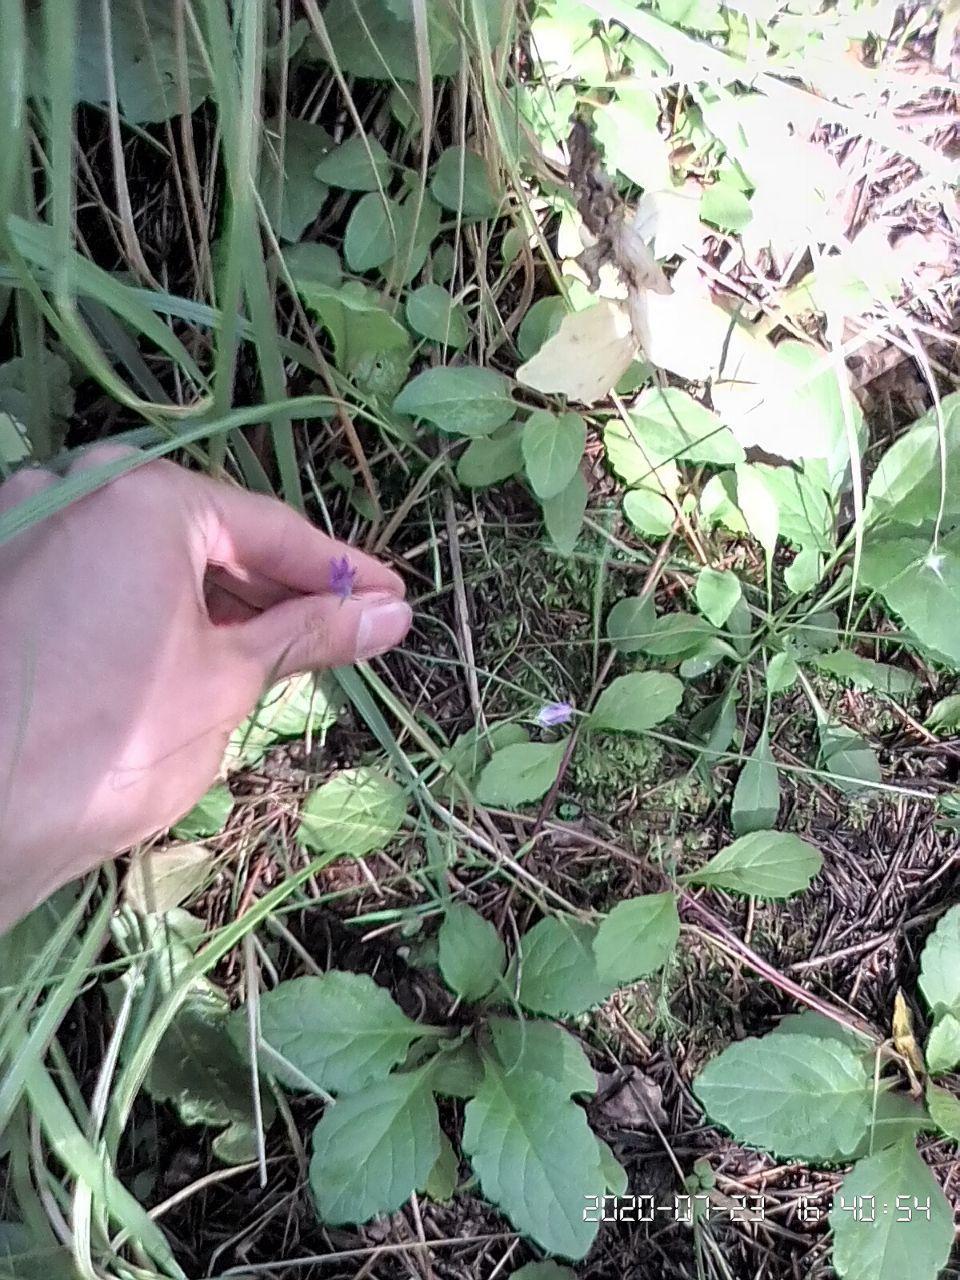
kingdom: Plantae
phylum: Tracheophyta
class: Magnoliopsida
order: Asterales
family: Campanulaceae
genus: Campanula
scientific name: Campanula patula
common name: Spreading bellflower
